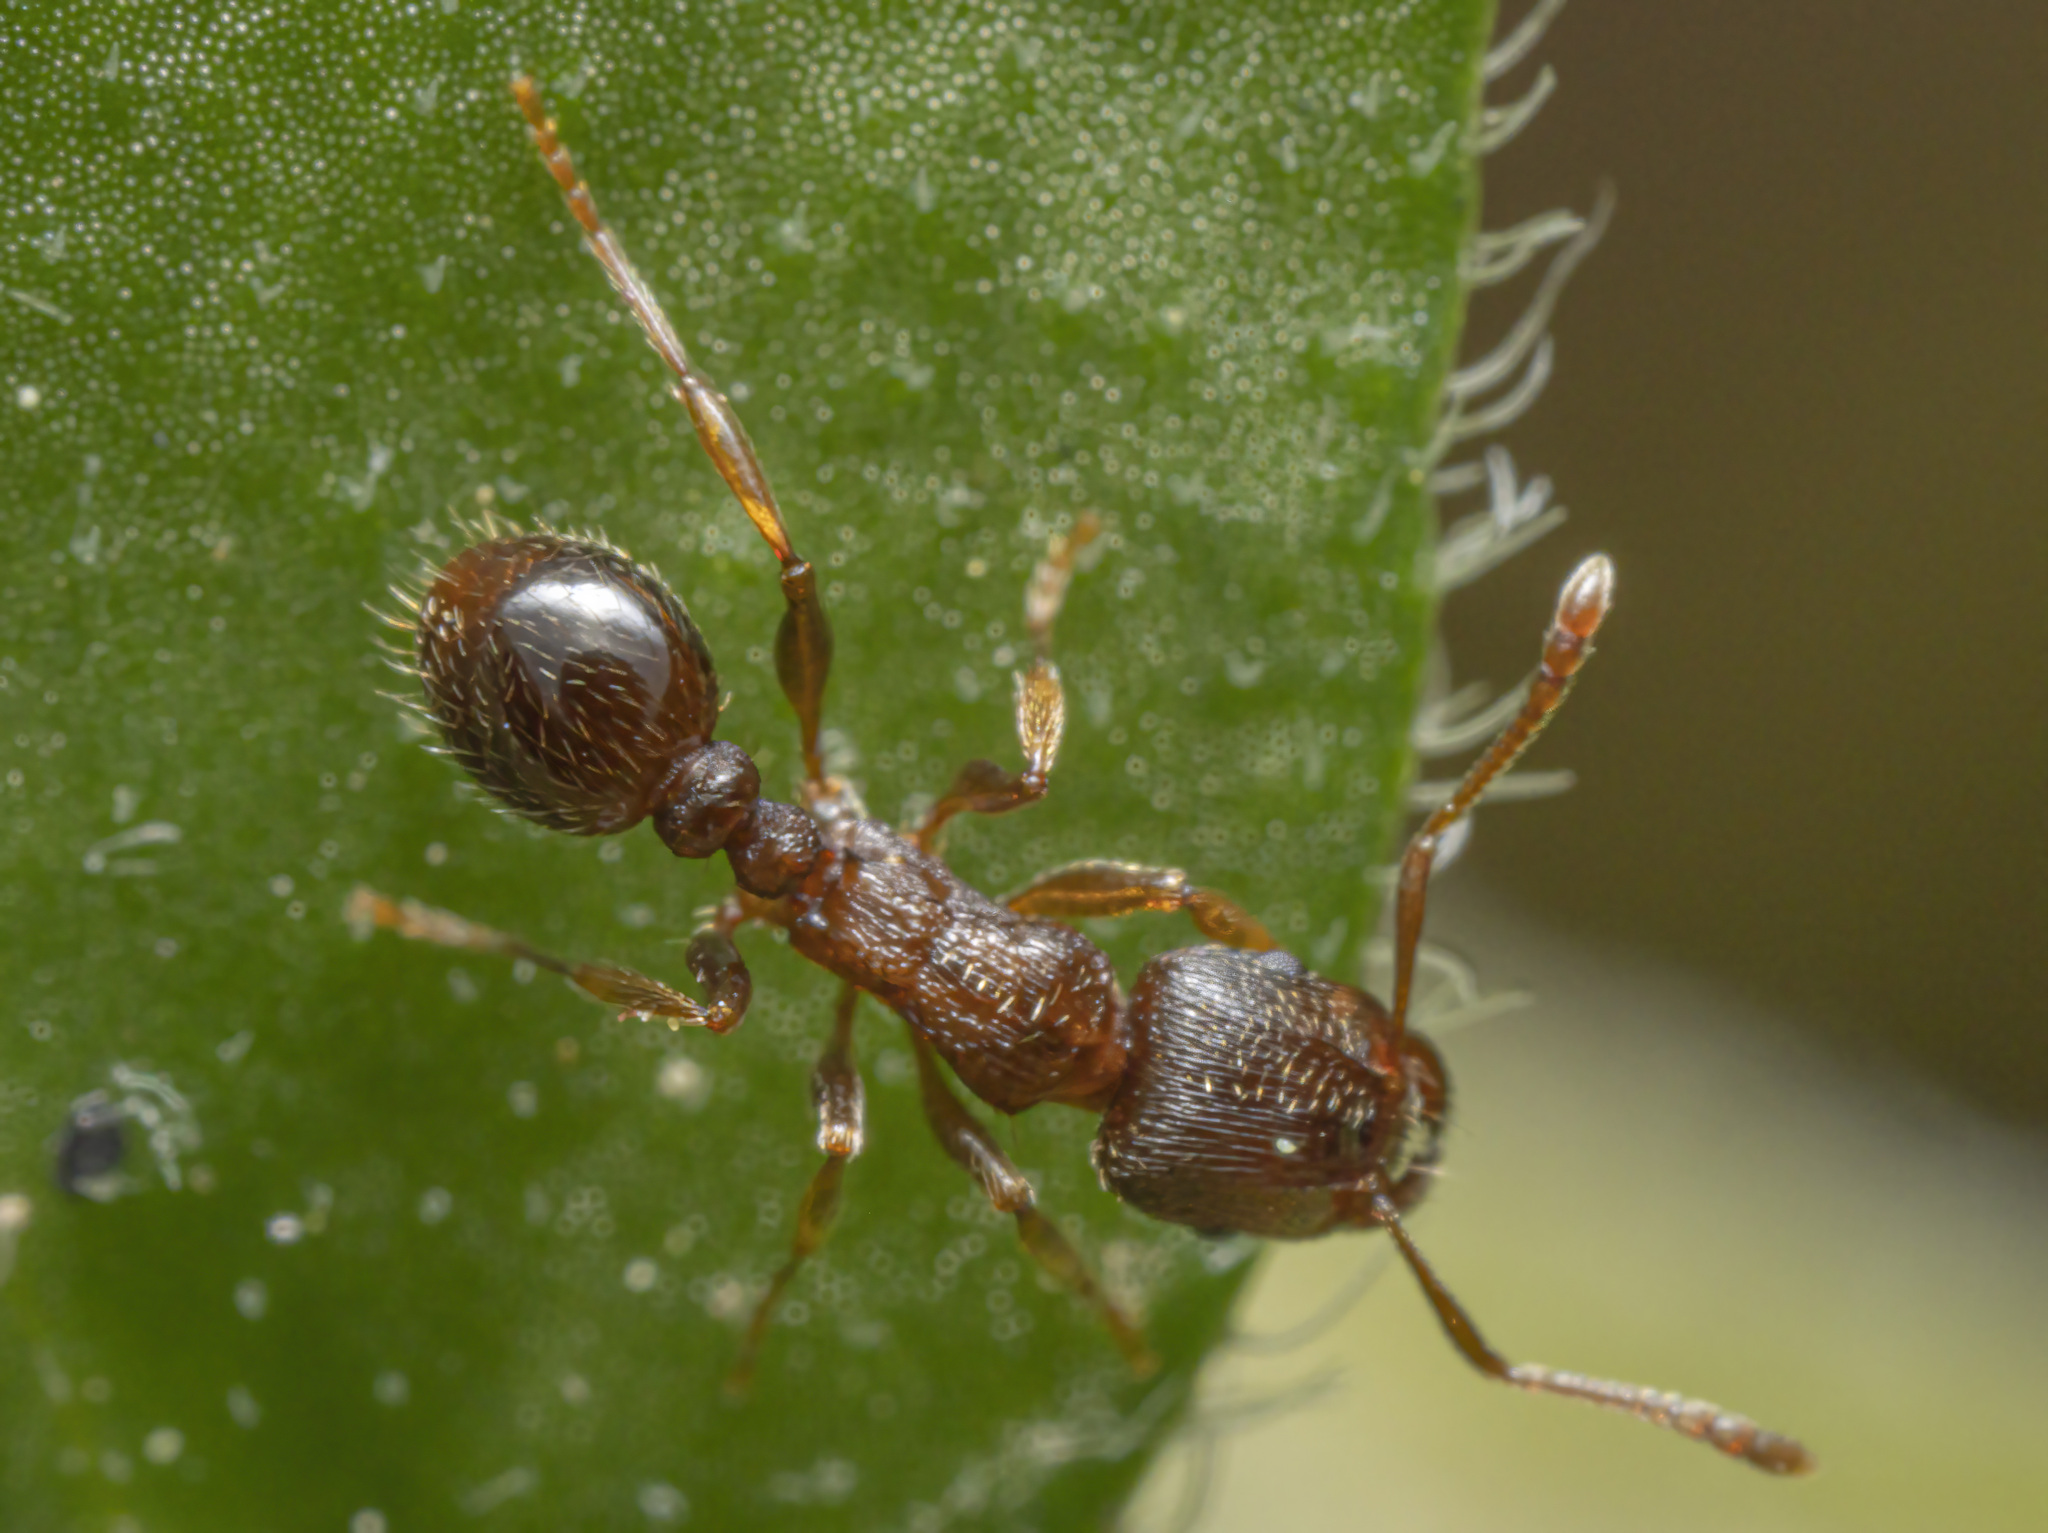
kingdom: Animalia
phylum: Arthropoda
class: Insecta
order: Hymenoptera
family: Formicidae
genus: Tetramorium
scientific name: Tetramorium immigrans
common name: Pavement ant
